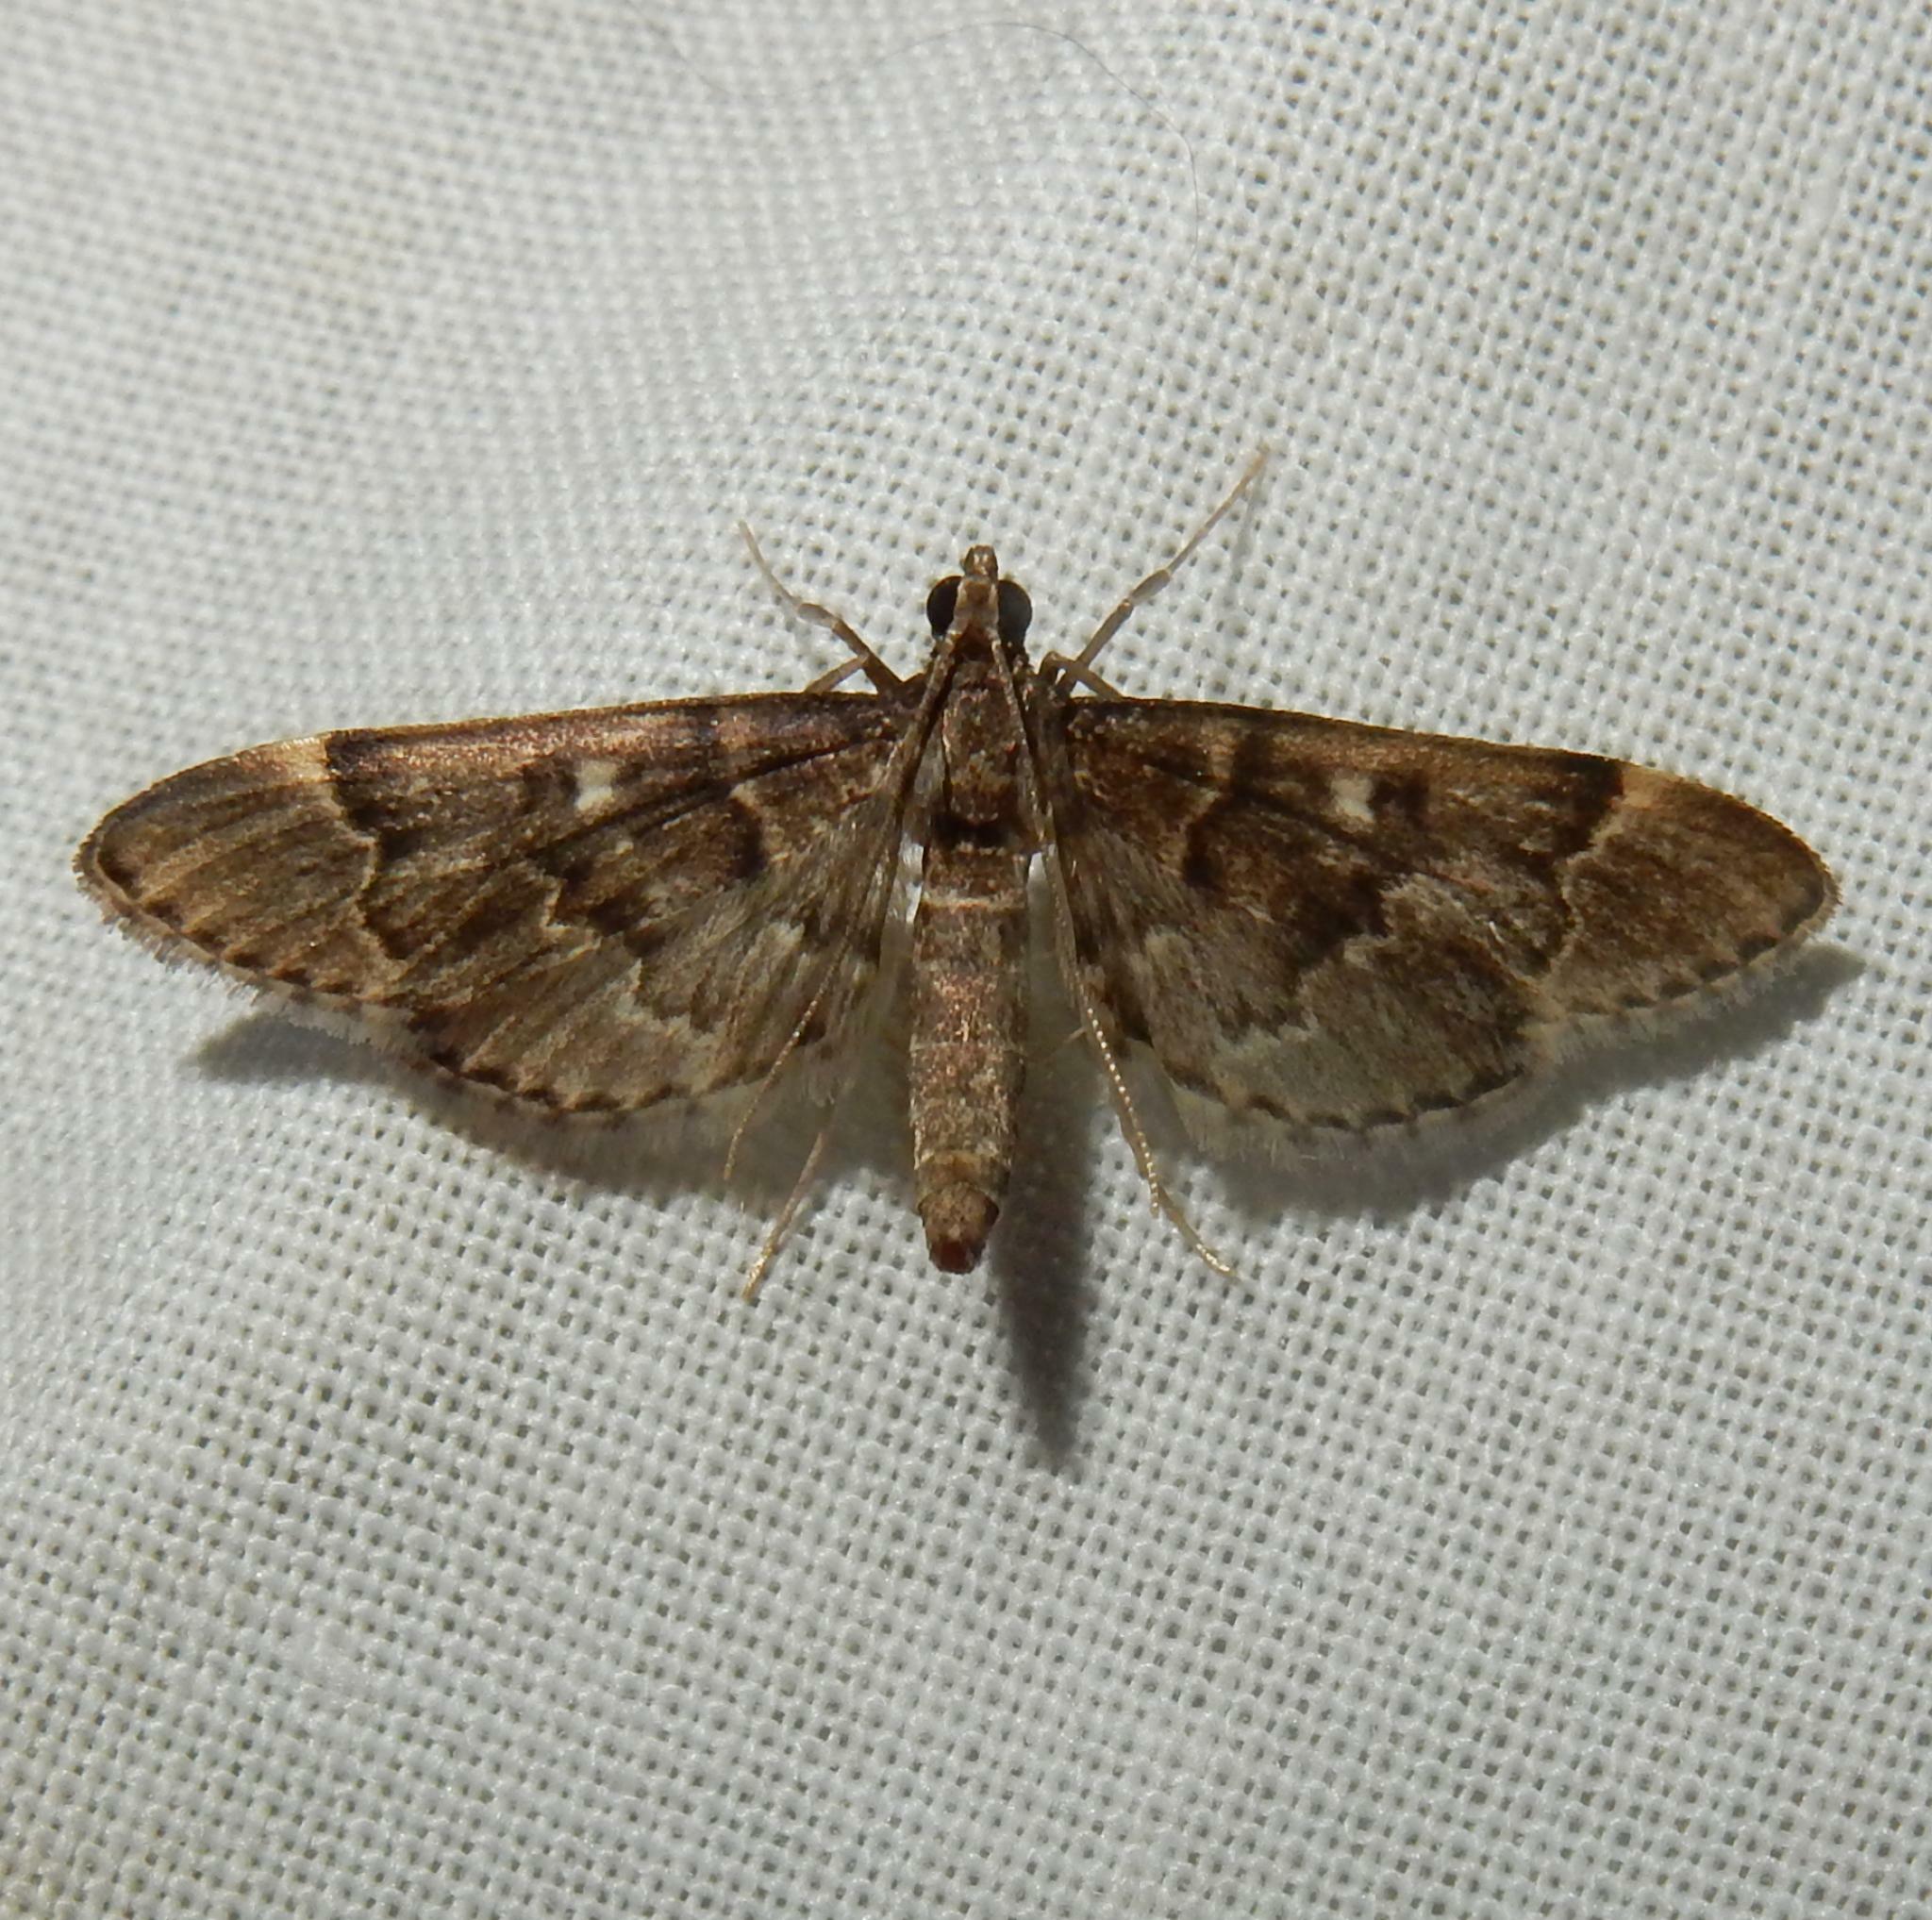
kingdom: Animalia
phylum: Arthropoda
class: Insecta
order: Lepidoptera
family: Crambidae
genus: Duponchelia
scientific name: Duponchelia lanceolalis
